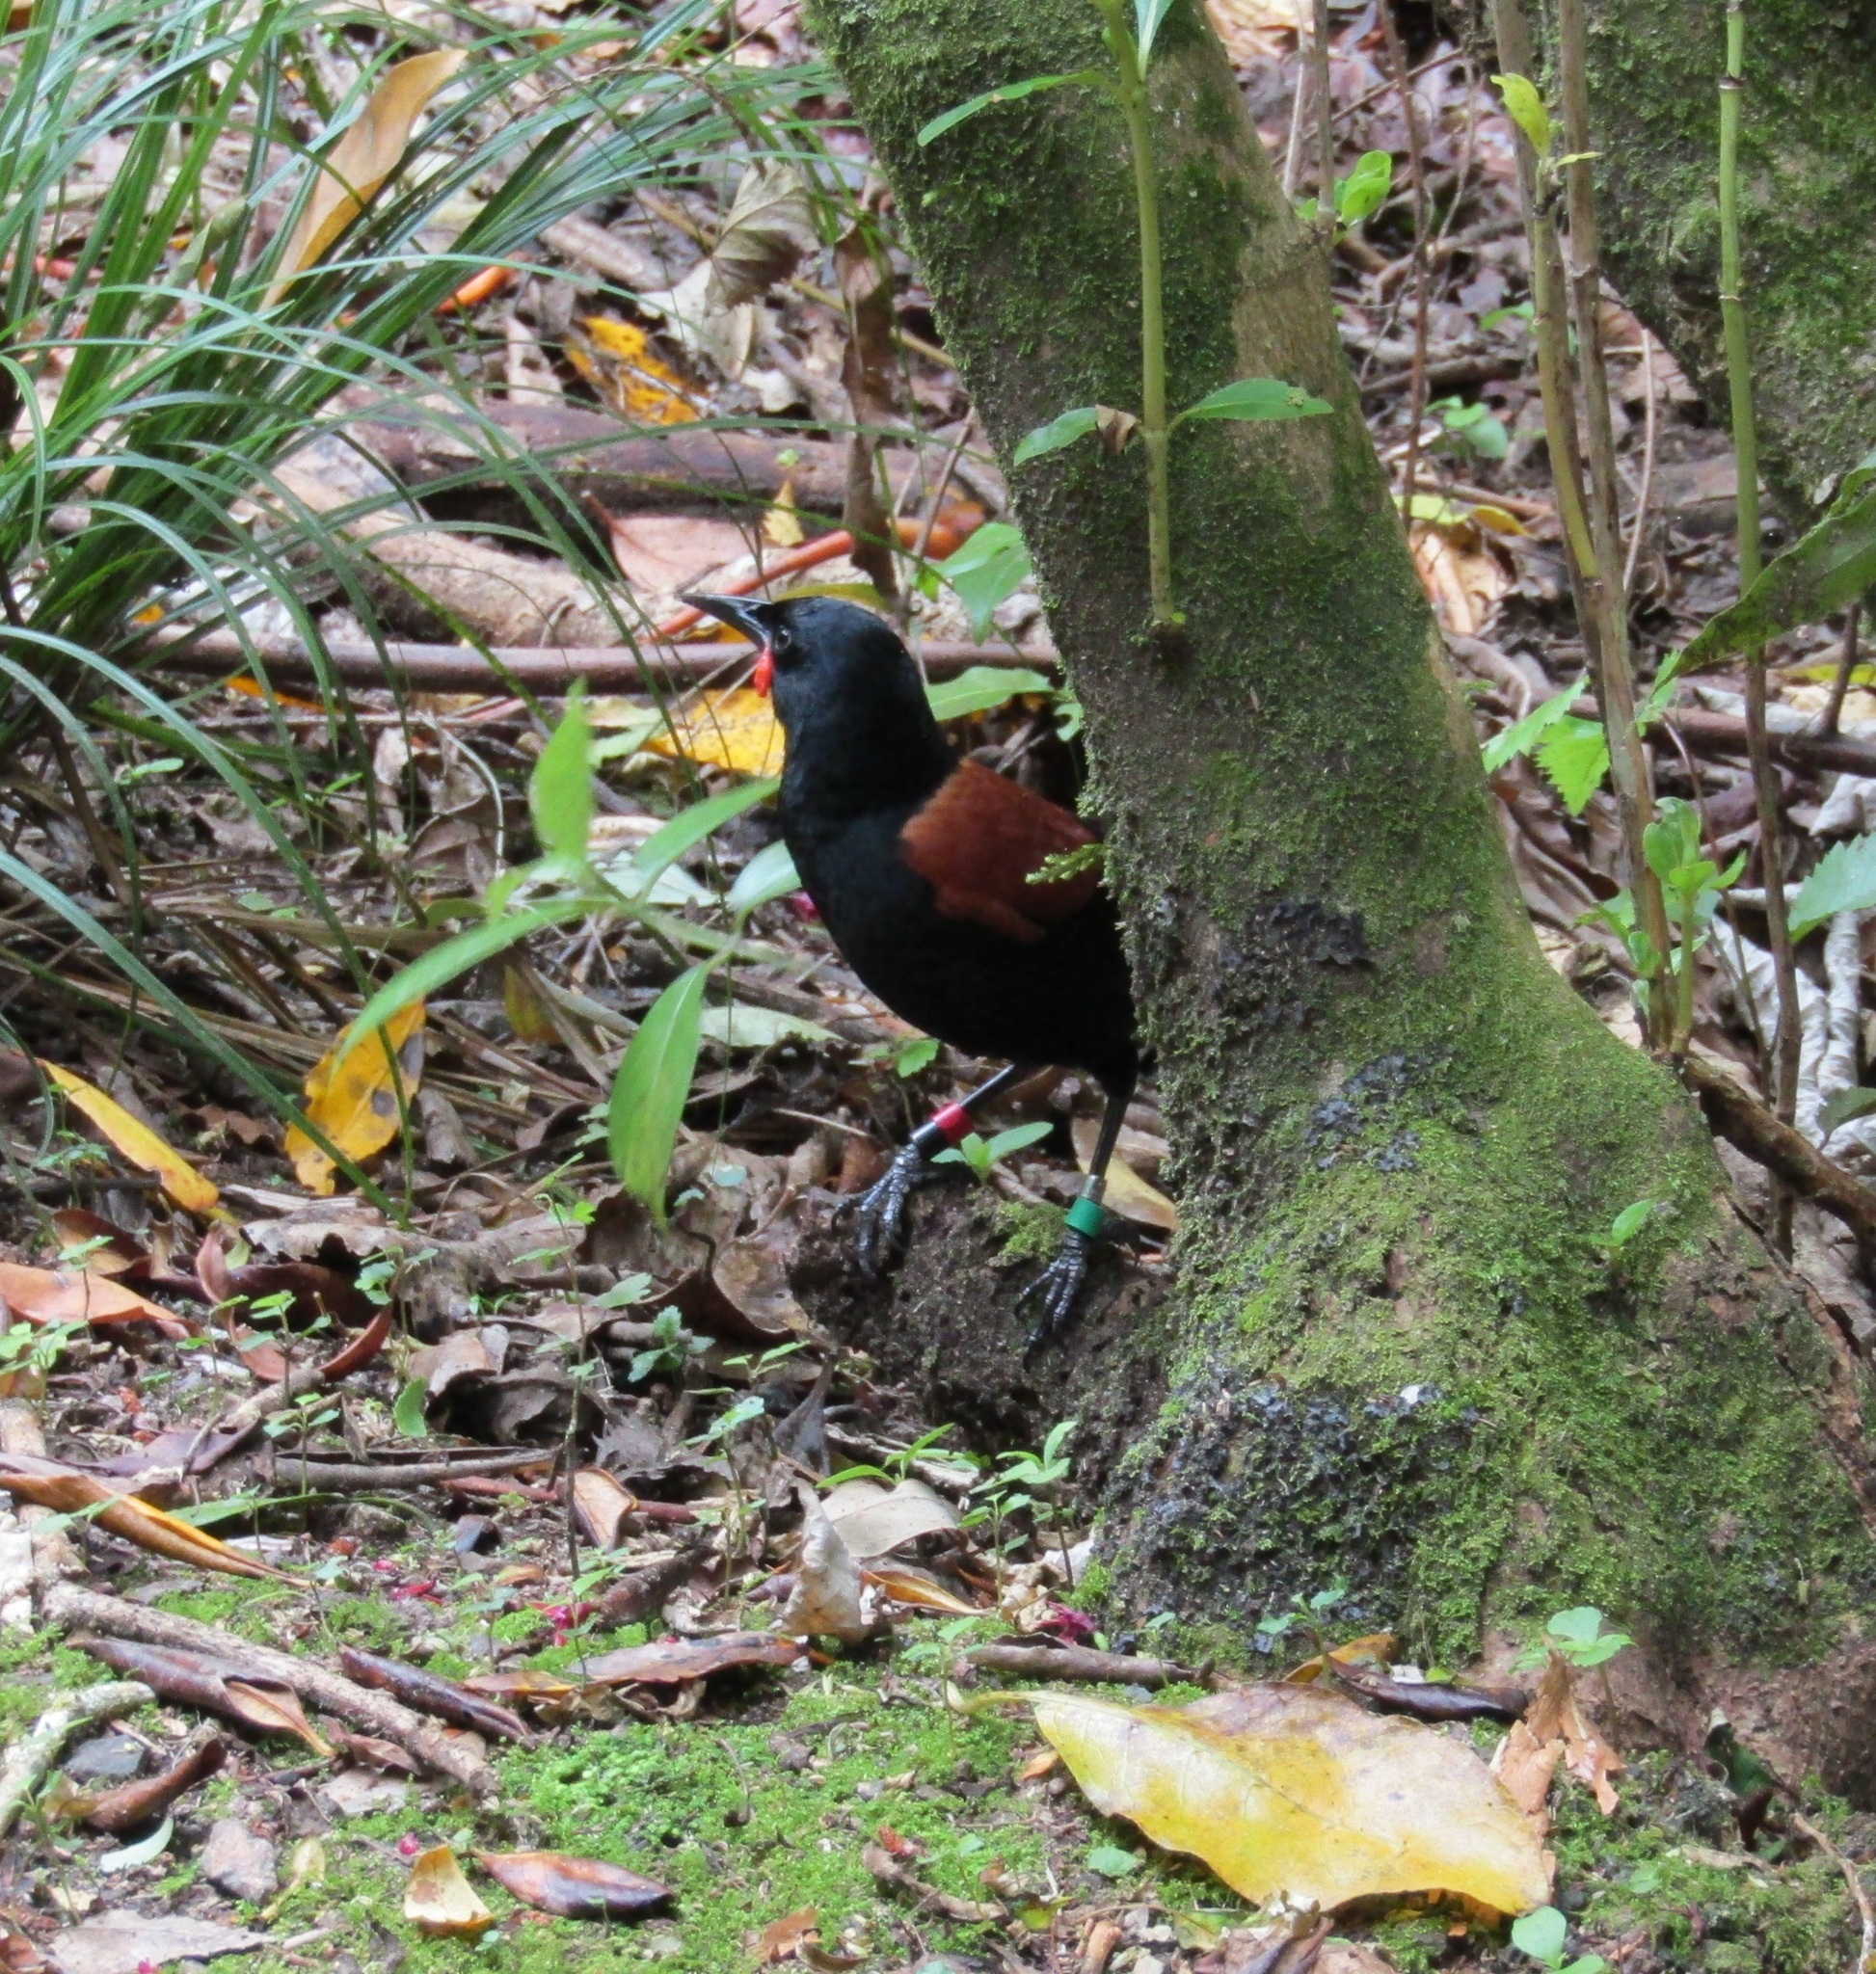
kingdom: Animalia
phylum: Chordata
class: Aves
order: Passeriformes
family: Callaeatidae
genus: Philesturnus
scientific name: Philesturnus carunculatus
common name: South island saddleback
